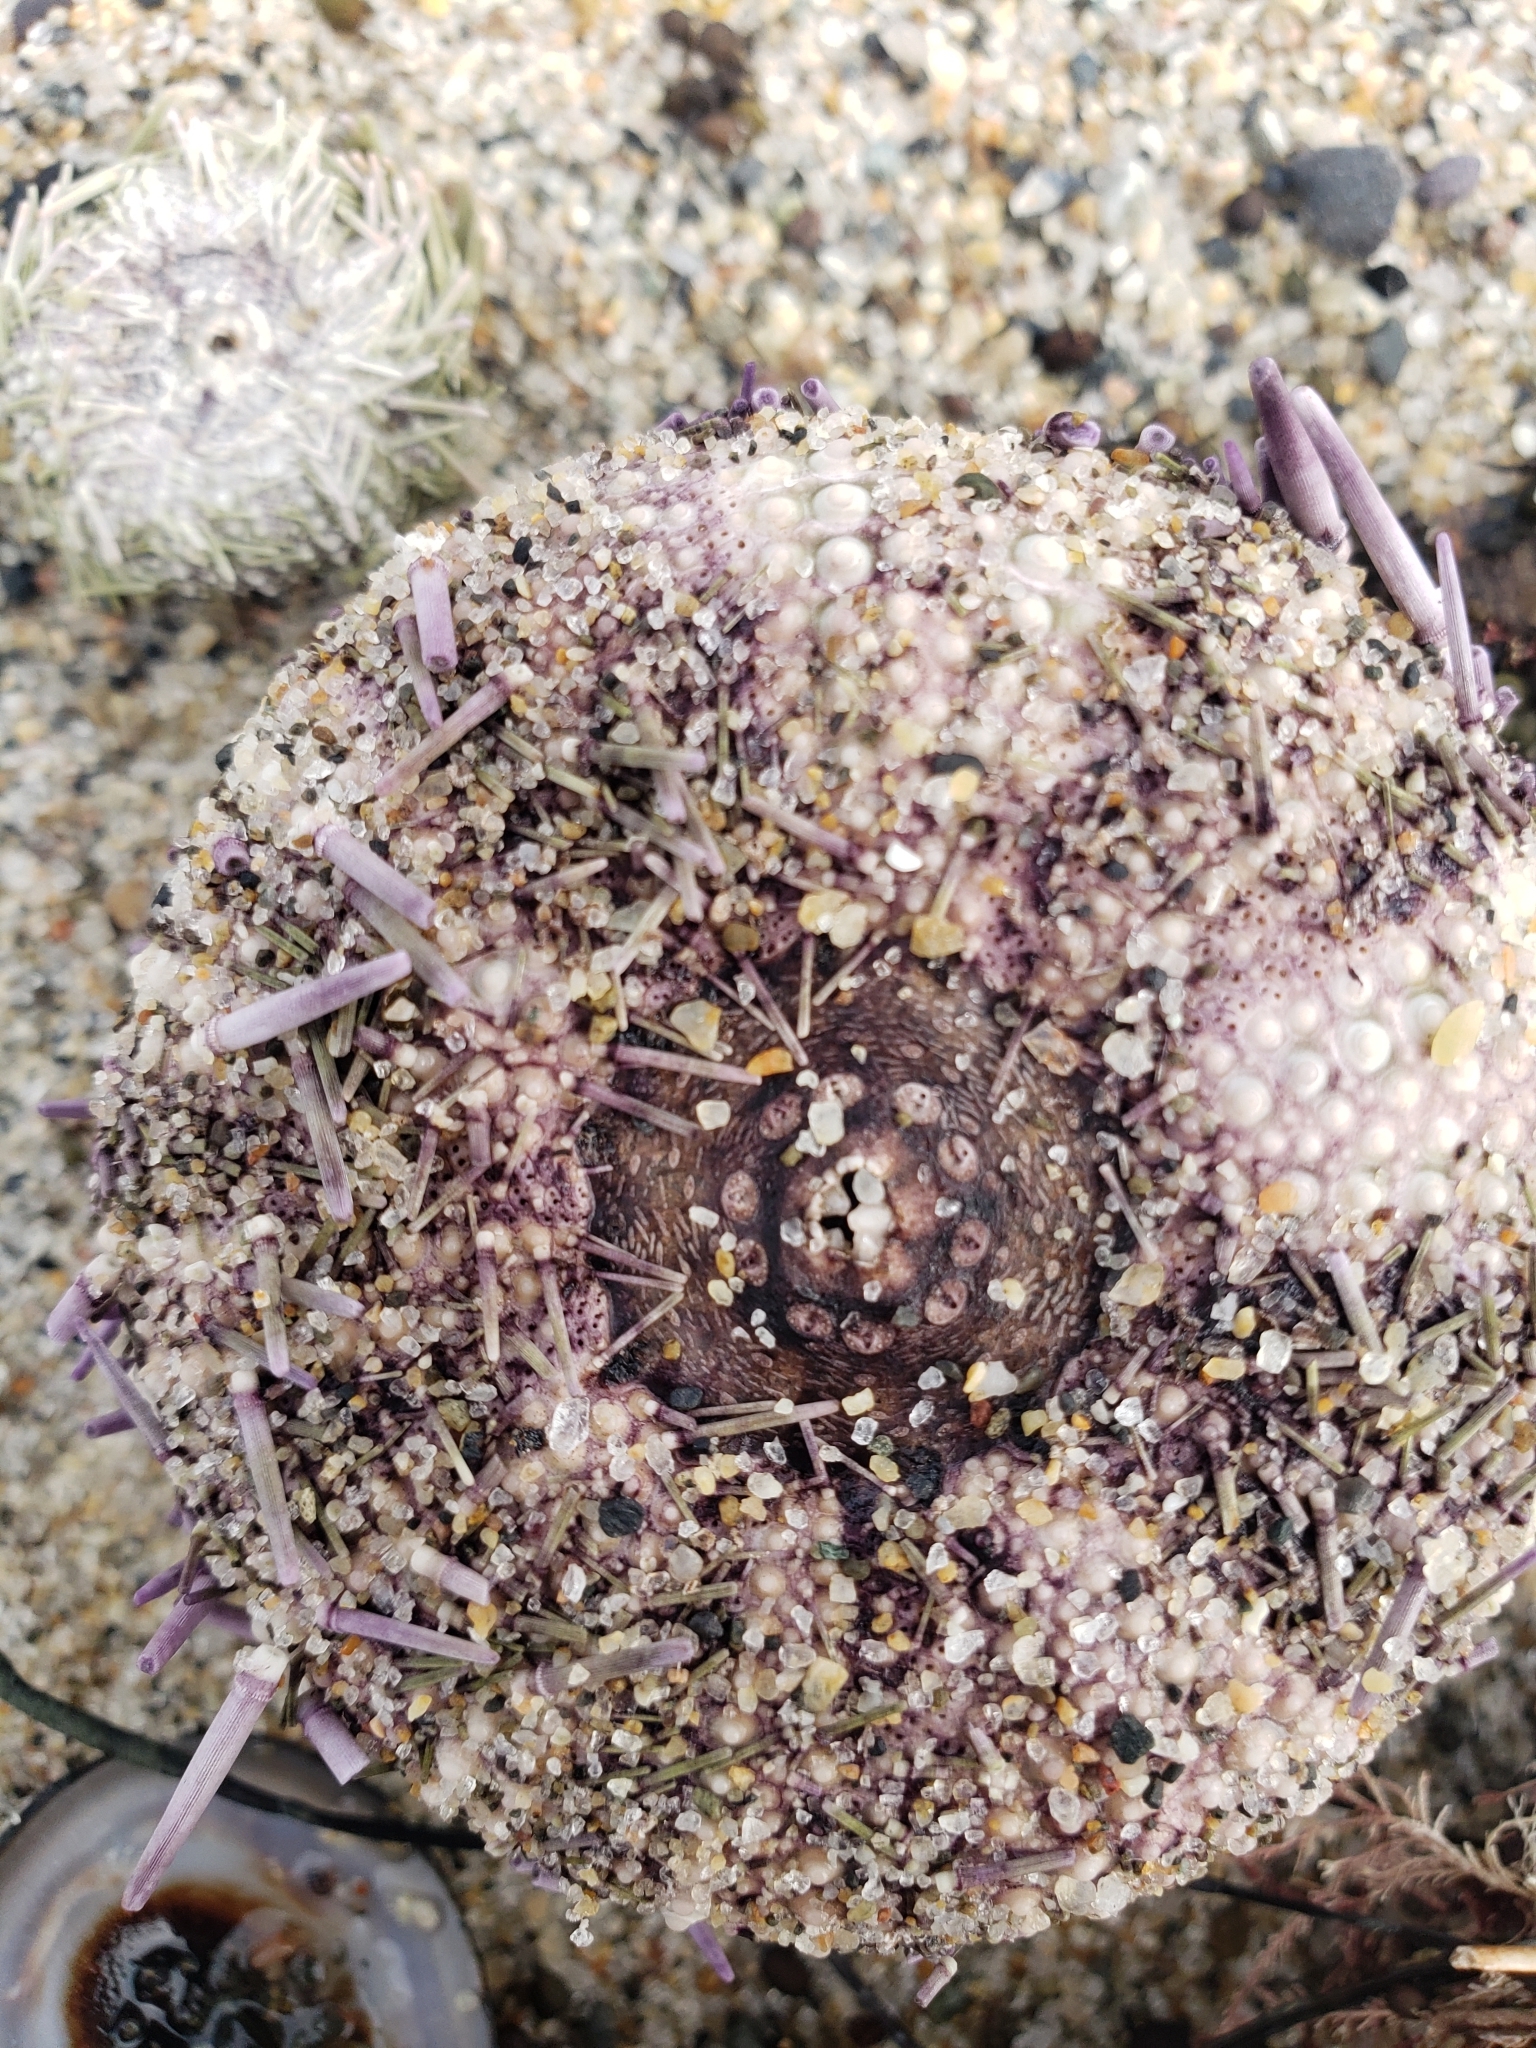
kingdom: Animalia
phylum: Echinodermata
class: Echinoidea
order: Camarodonta
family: Strongylocentrotidae
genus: Strongylocentrotus
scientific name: Strongylocentrotus purpuratus
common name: Purple sea urchin
